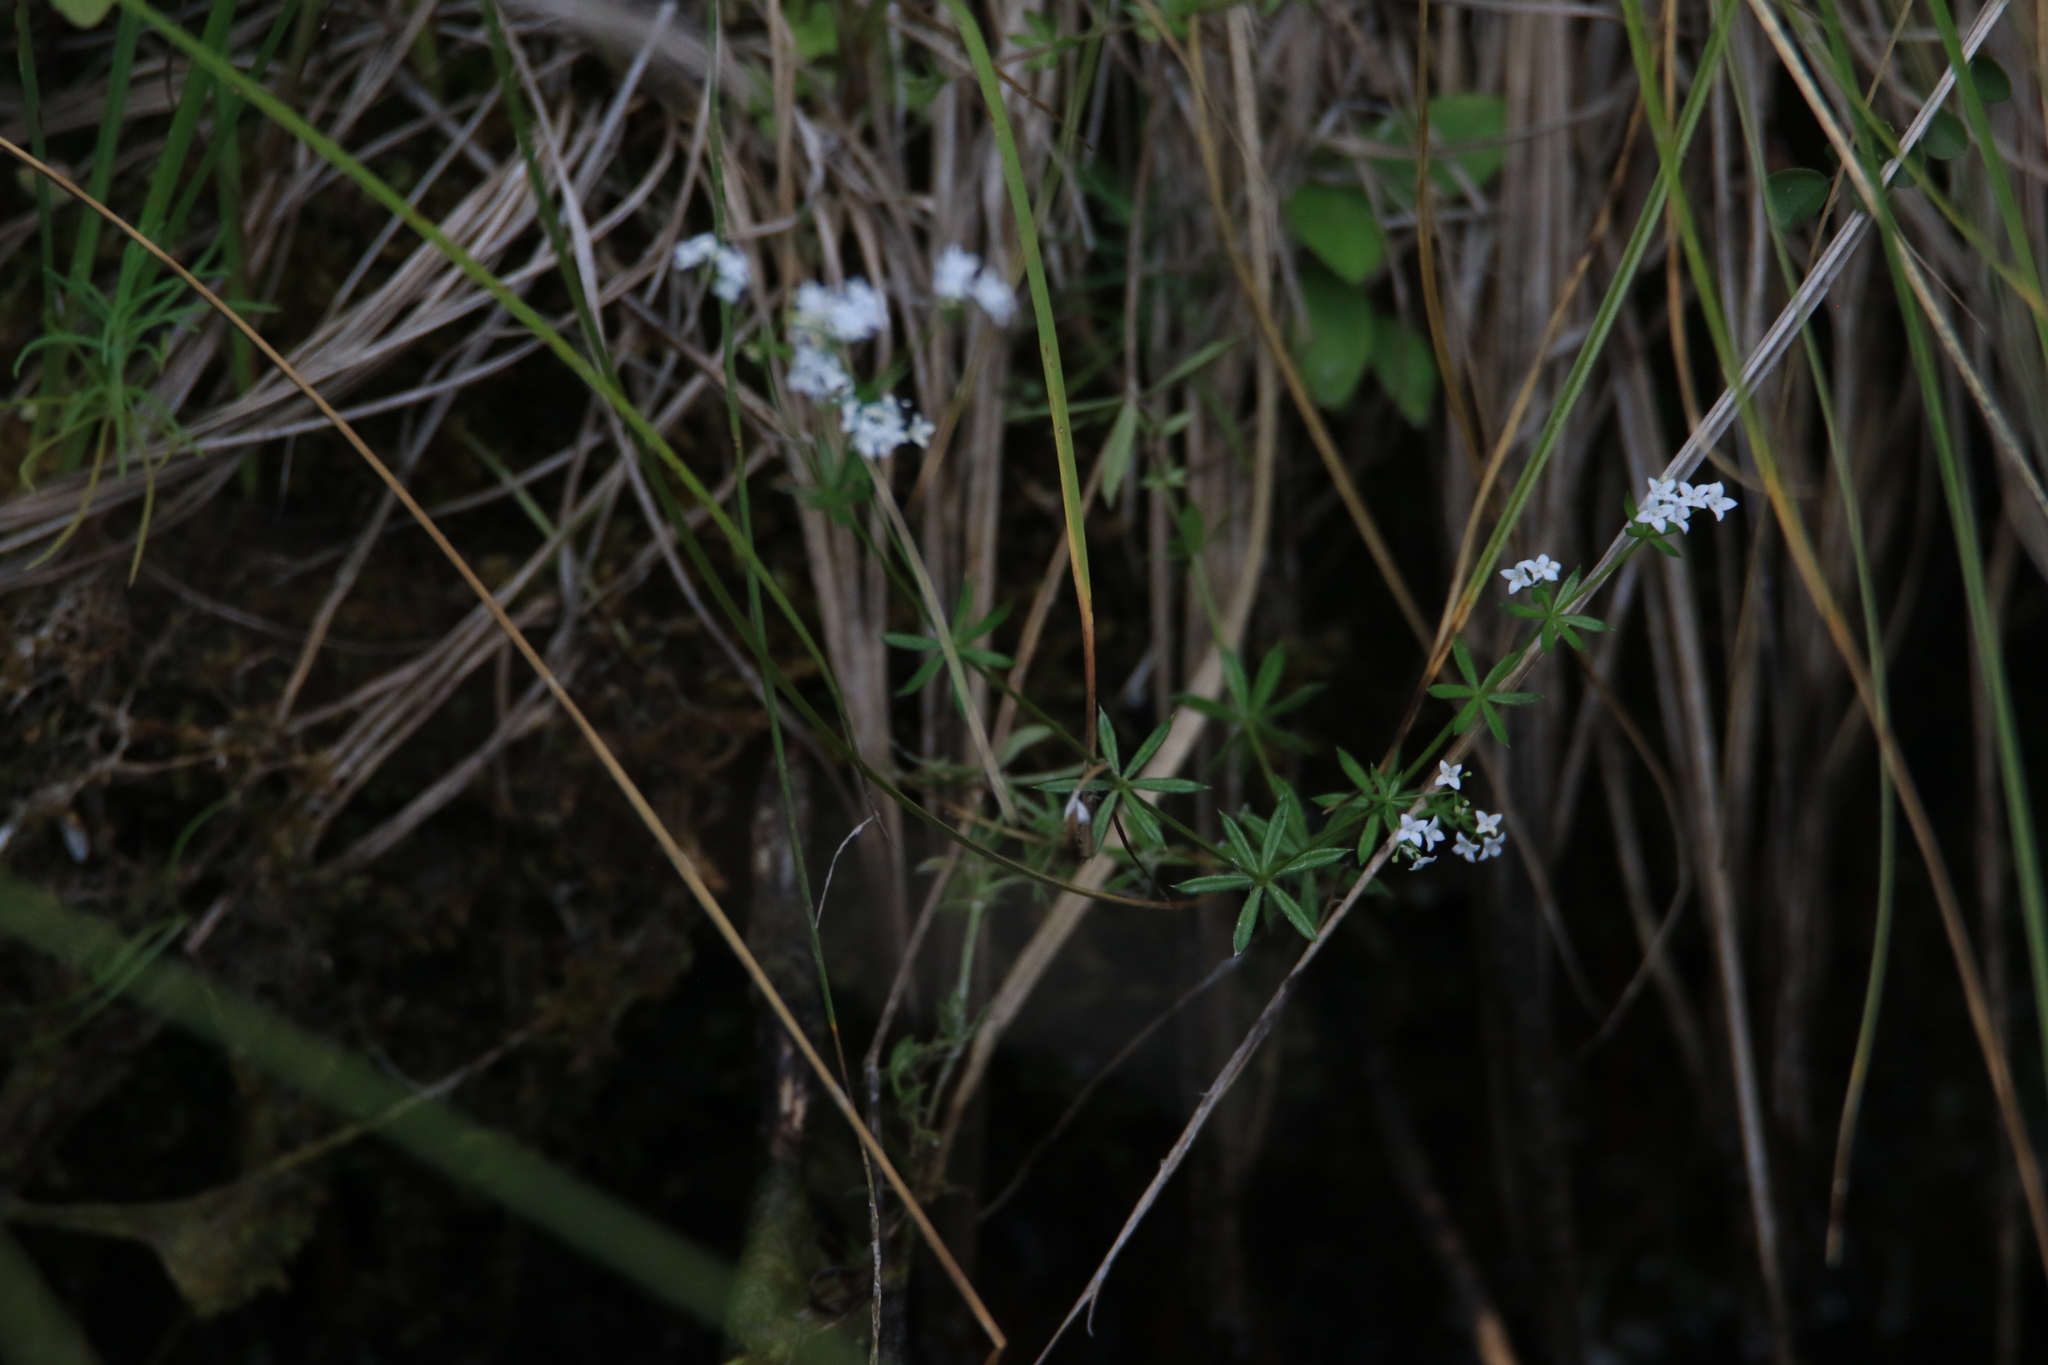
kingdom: Plantae
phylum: Tracheophyta
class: Magnoliopsida
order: Celastrales
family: Parnassiaceae
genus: Parnassia
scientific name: Parnassia palustris
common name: Grass-of-parnassus
